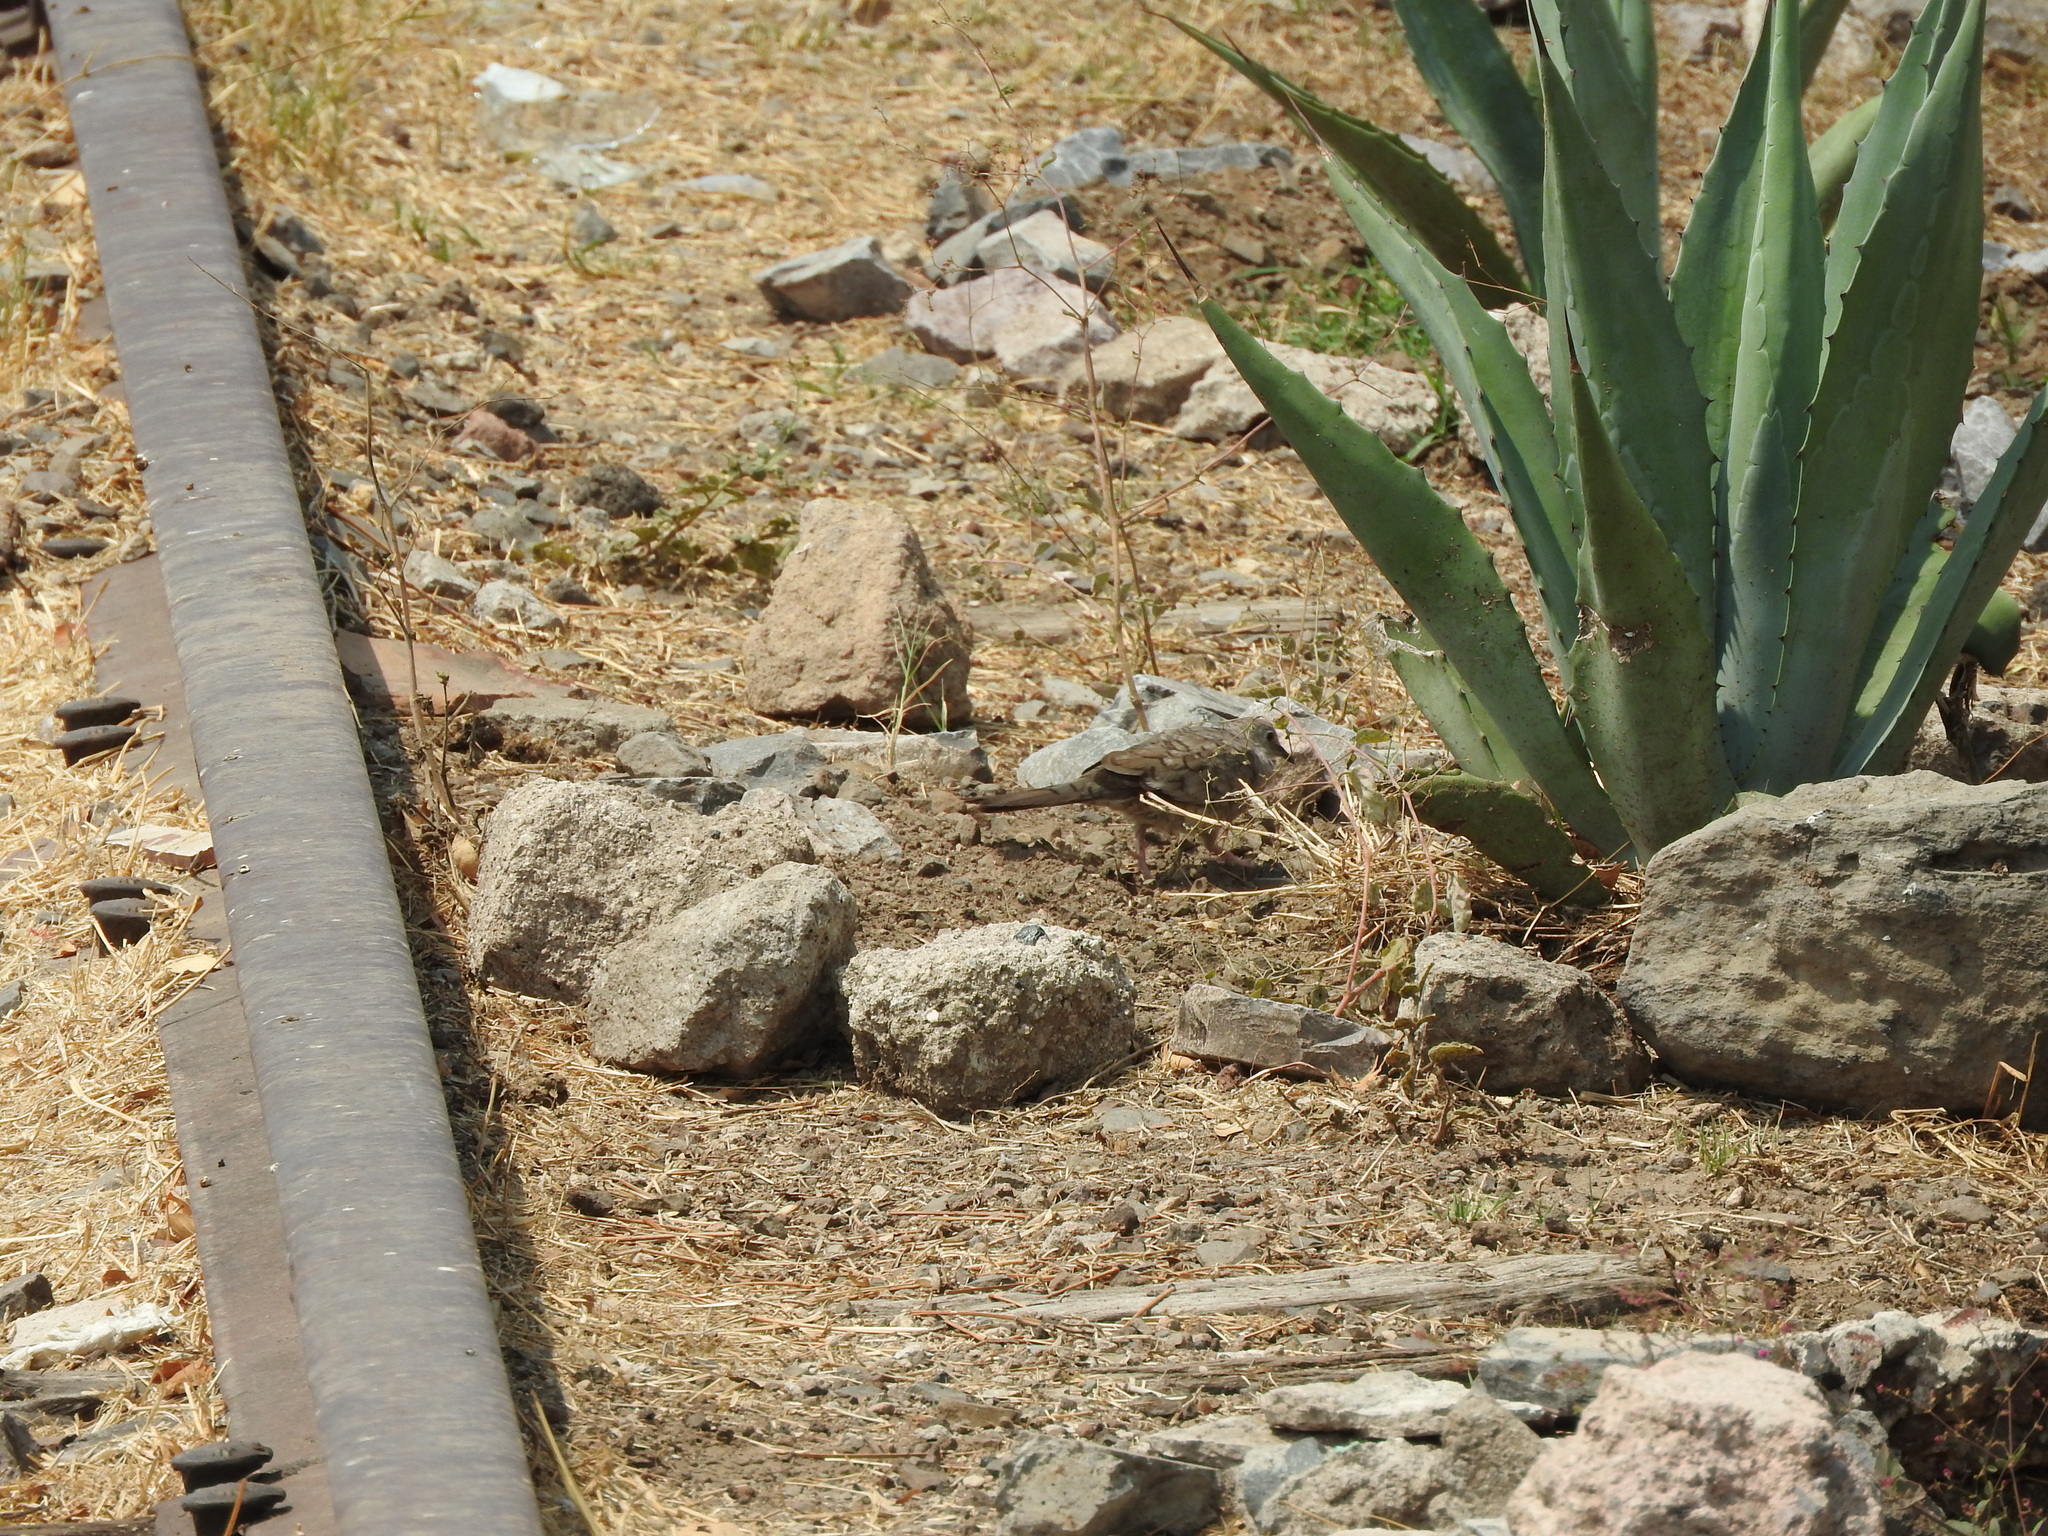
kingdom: Animalia
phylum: Chordata
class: Aves
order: Columbiformes
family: Columbidae
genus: Columbina
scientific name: Columbina inca
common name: Inca dove
